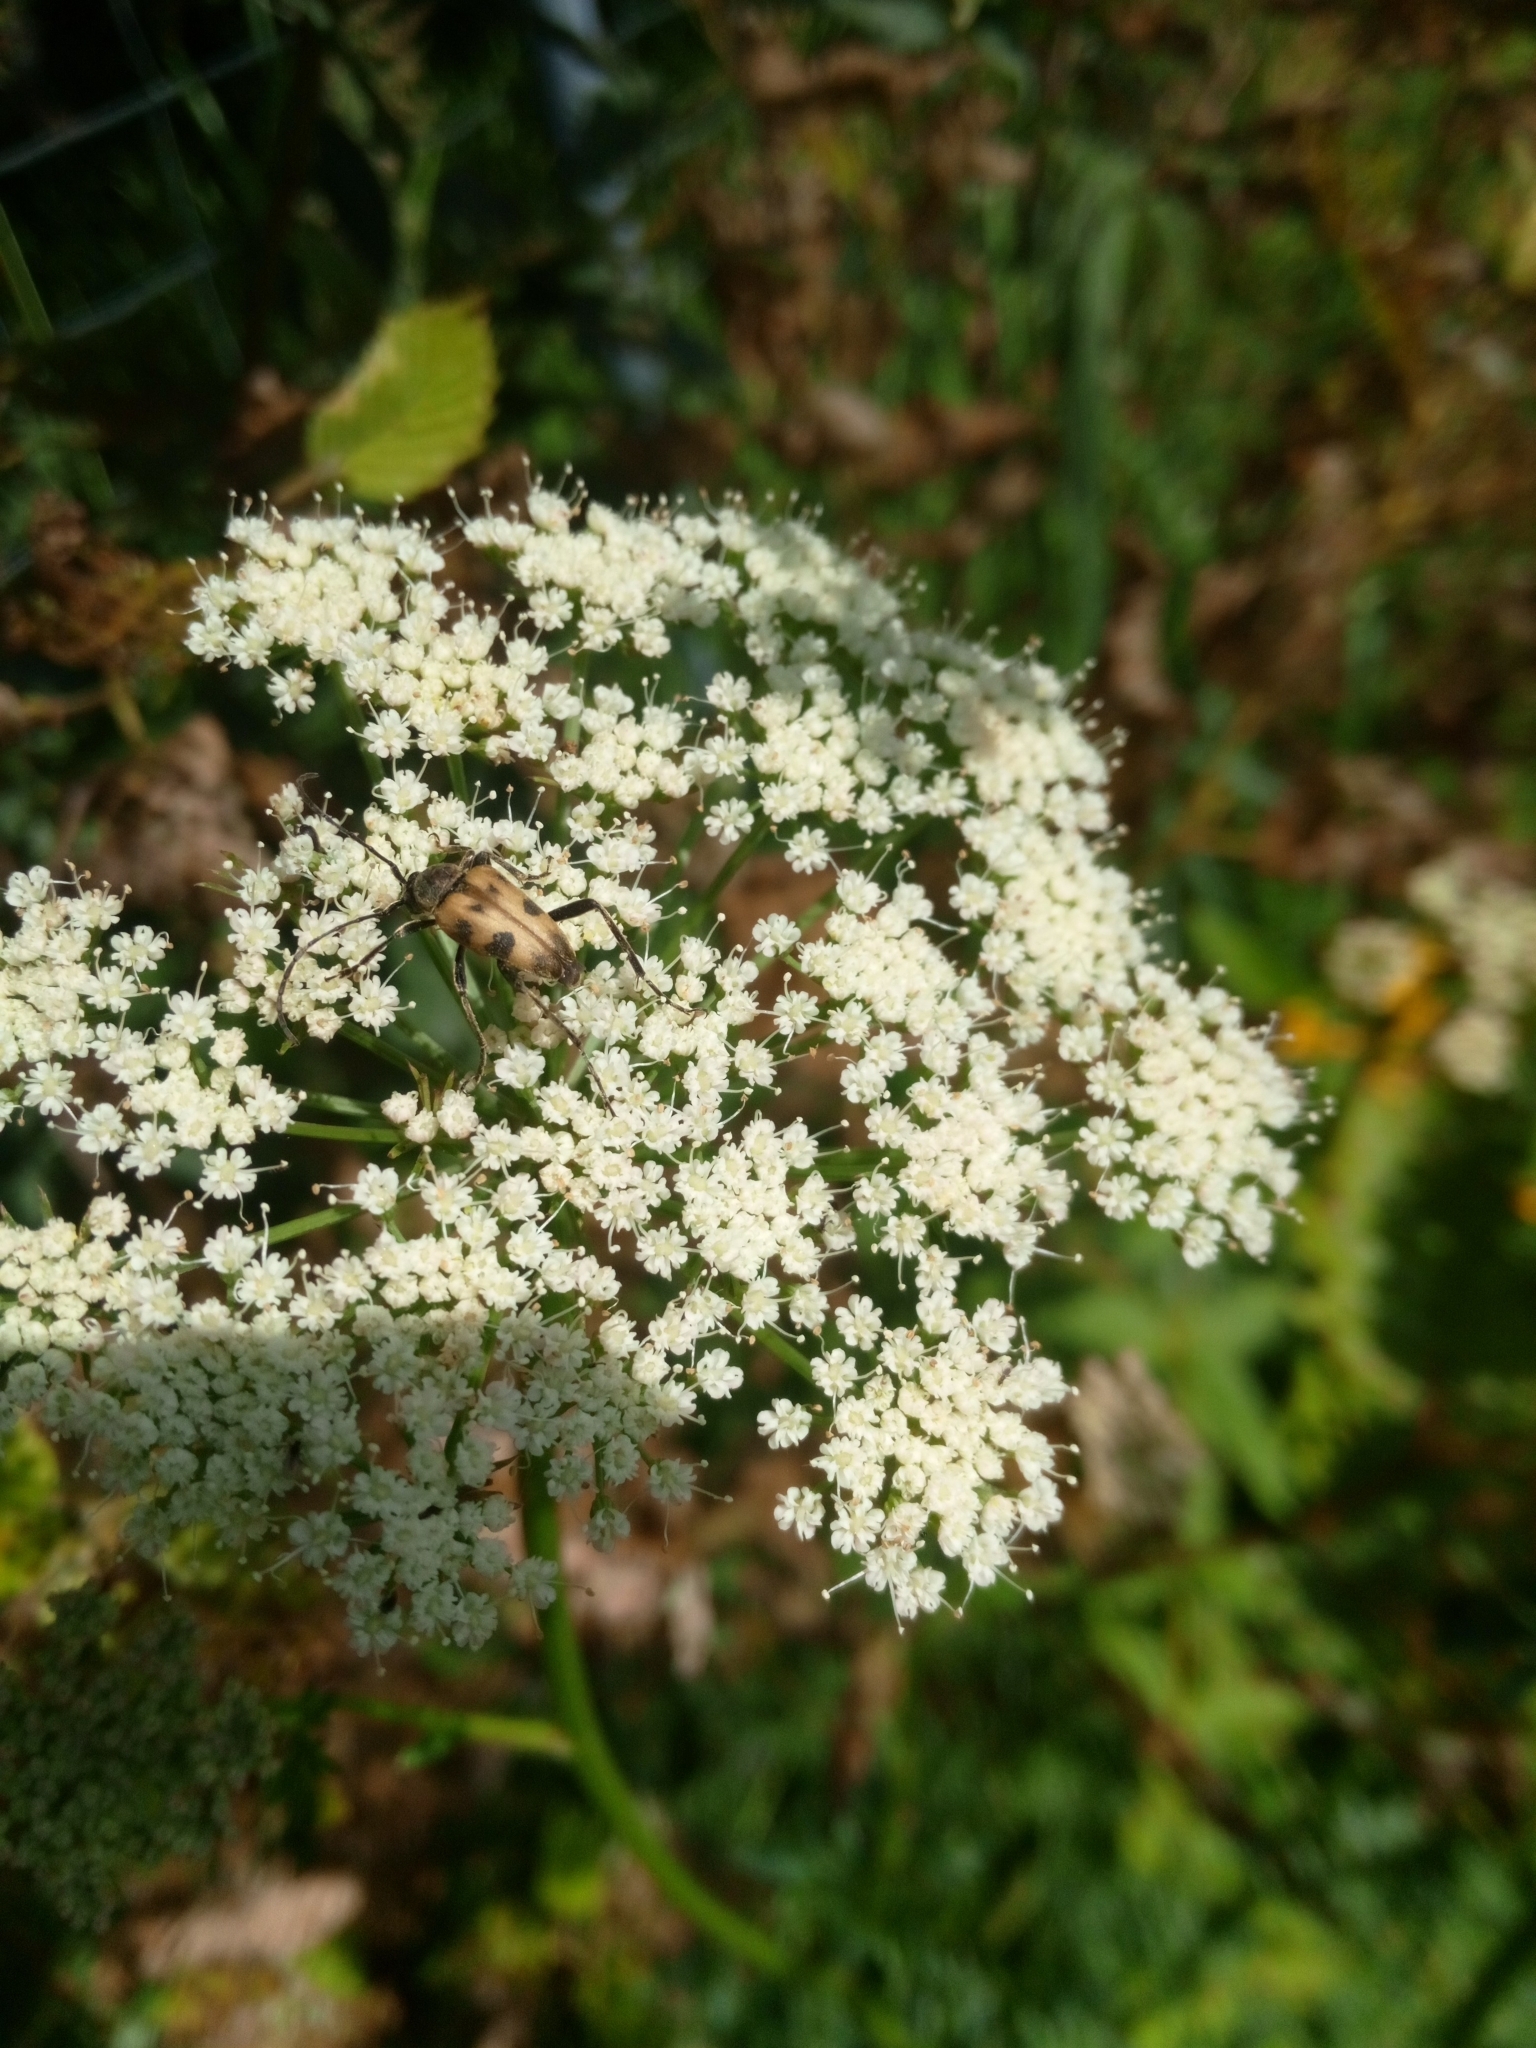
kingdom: Animalia
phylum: Arthropoda
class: Insecta
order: Coleoptera
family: Cerambycidae
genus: Pachytodes
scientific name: Pachytodes cerambyciformis
